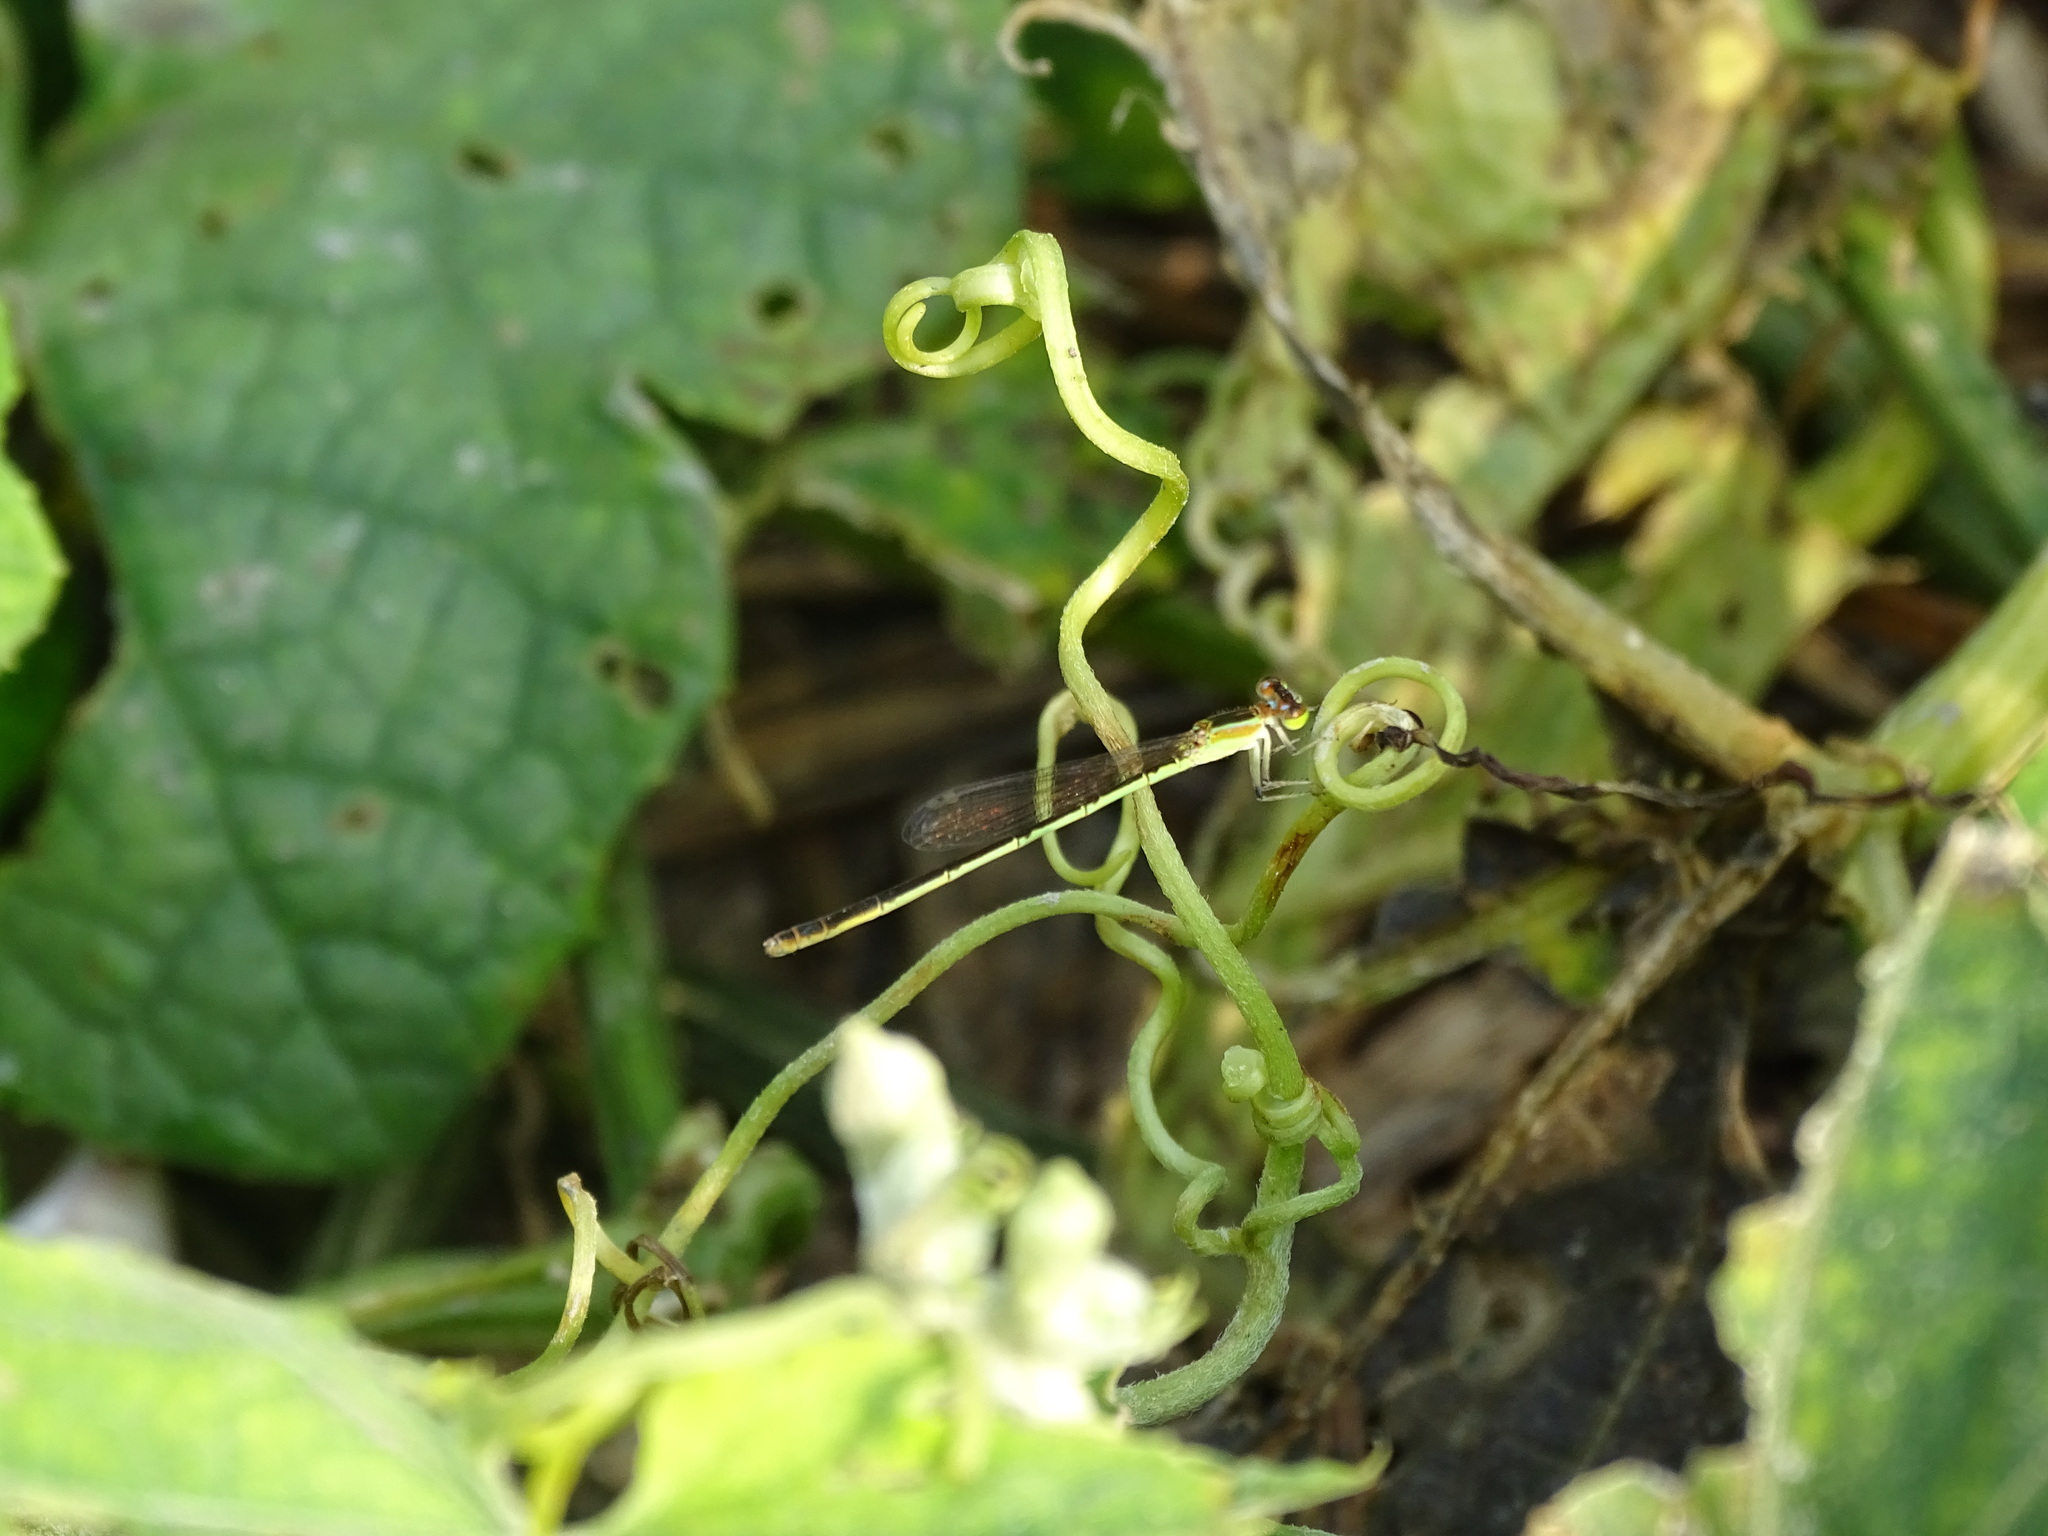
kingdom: Animalia
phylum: Arthropoda
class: Insecta
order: Odonata
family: Coenagrionidae
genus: Ischnura
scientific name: Ischnura senegalensis
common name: Tropical bluetail
